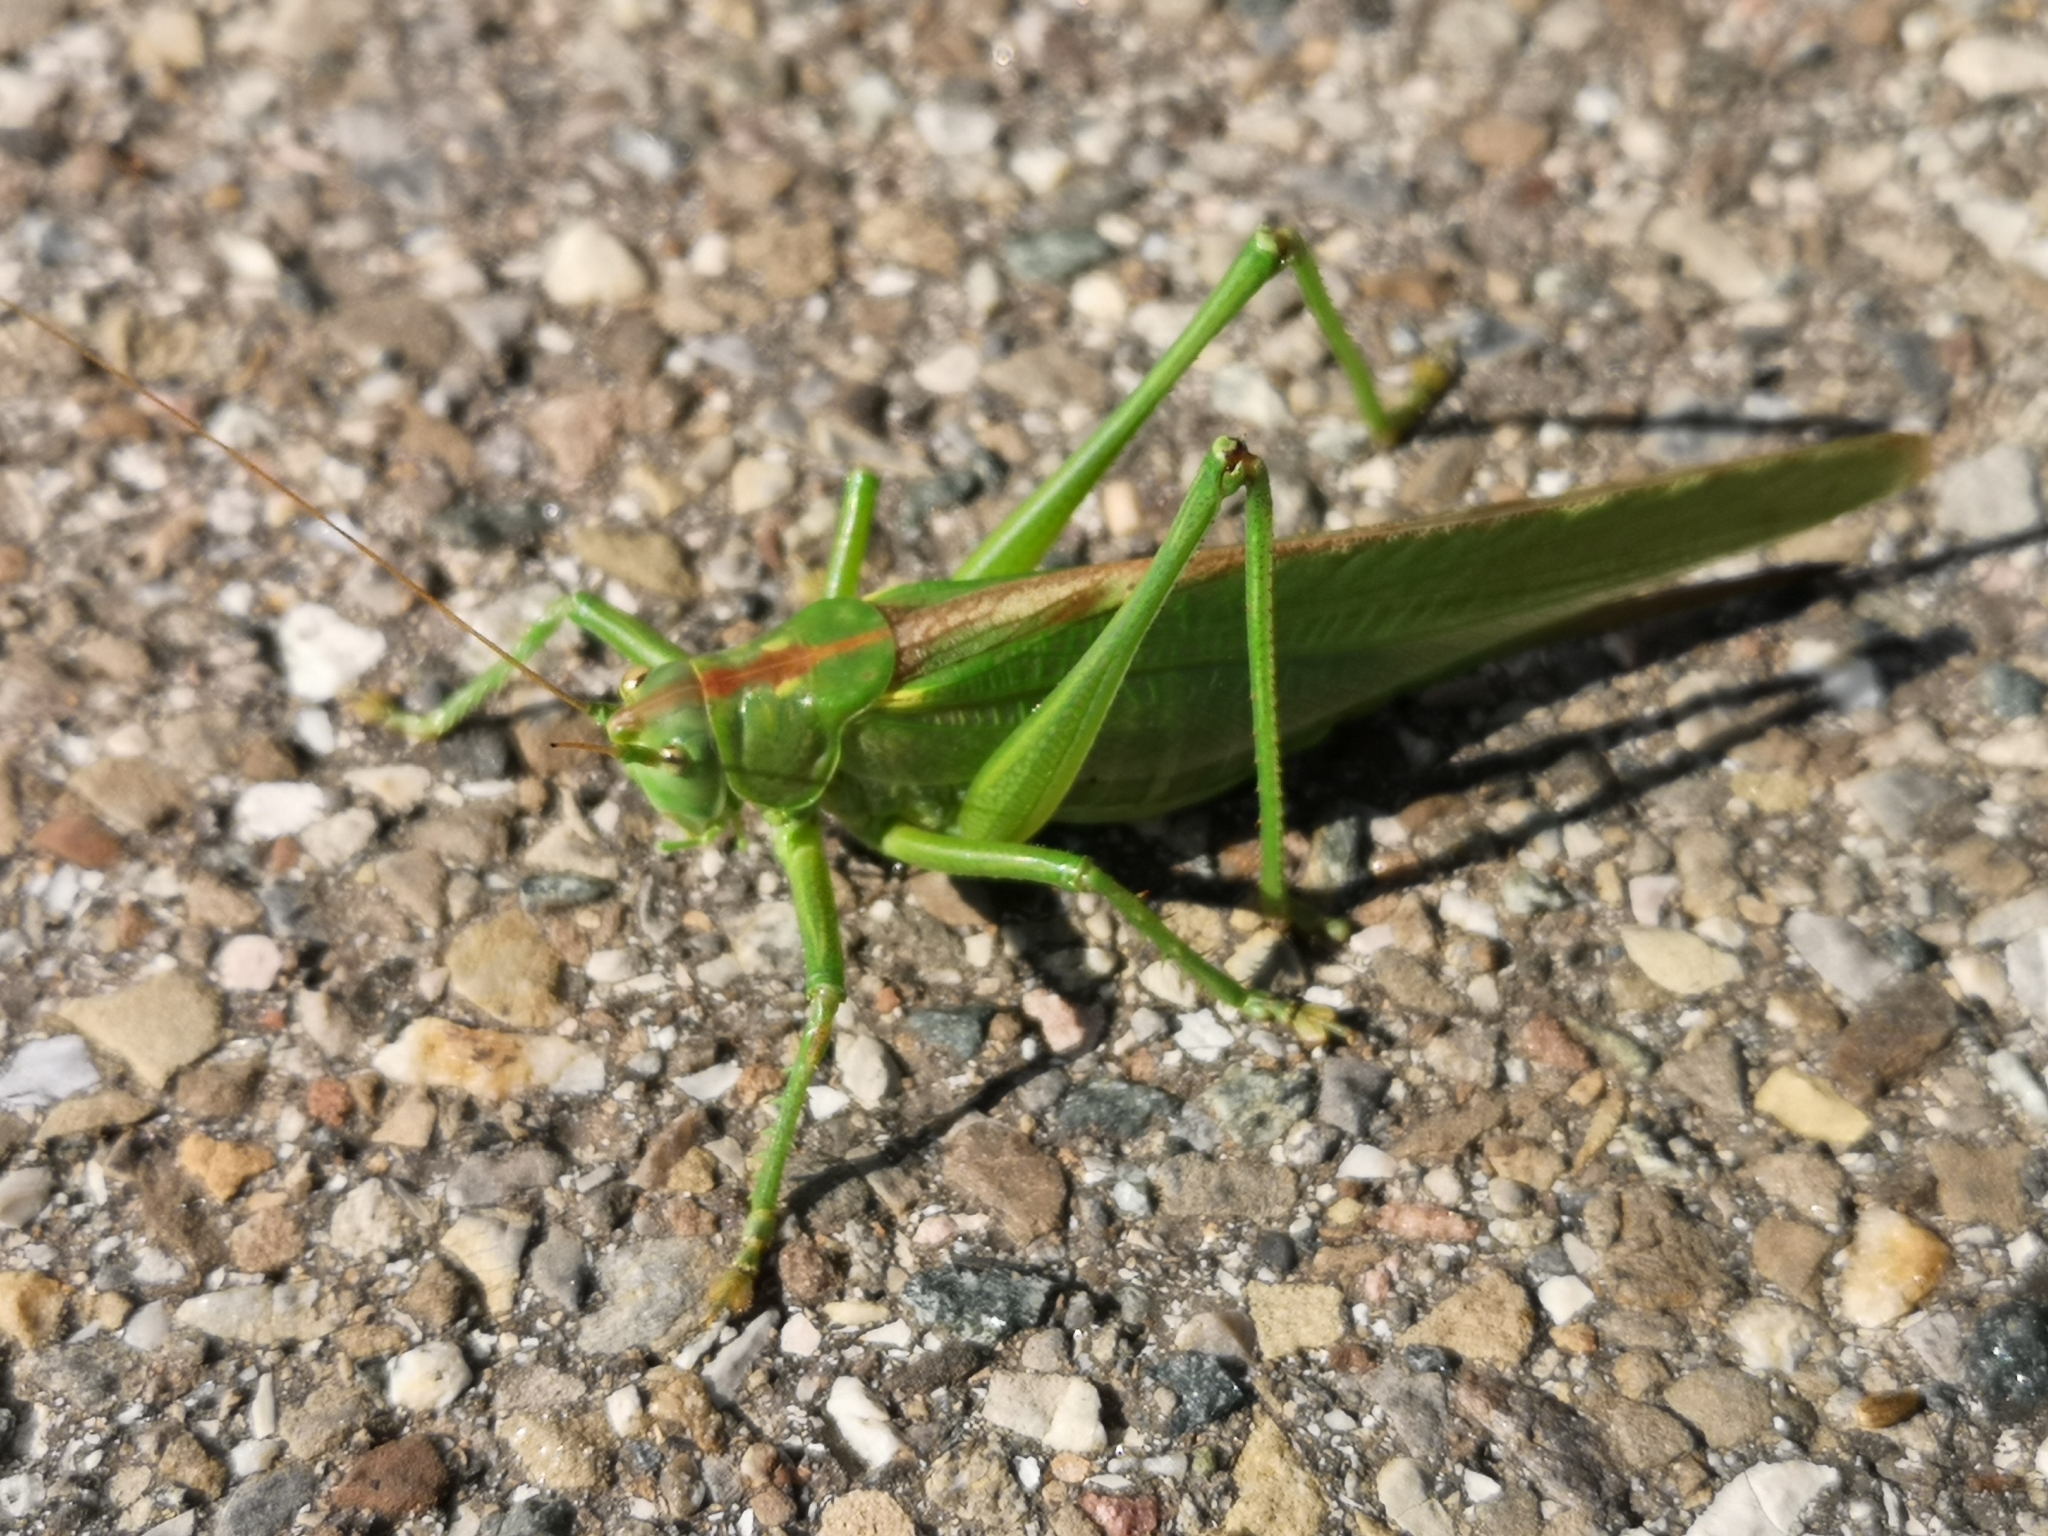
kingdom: Animalia
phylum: Arthropoda
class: Insecta
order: Orthoptera
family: Tettigoniidae
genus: Tettigonia
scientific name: Tettigonia viridissima
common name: Great green bush-cricket
